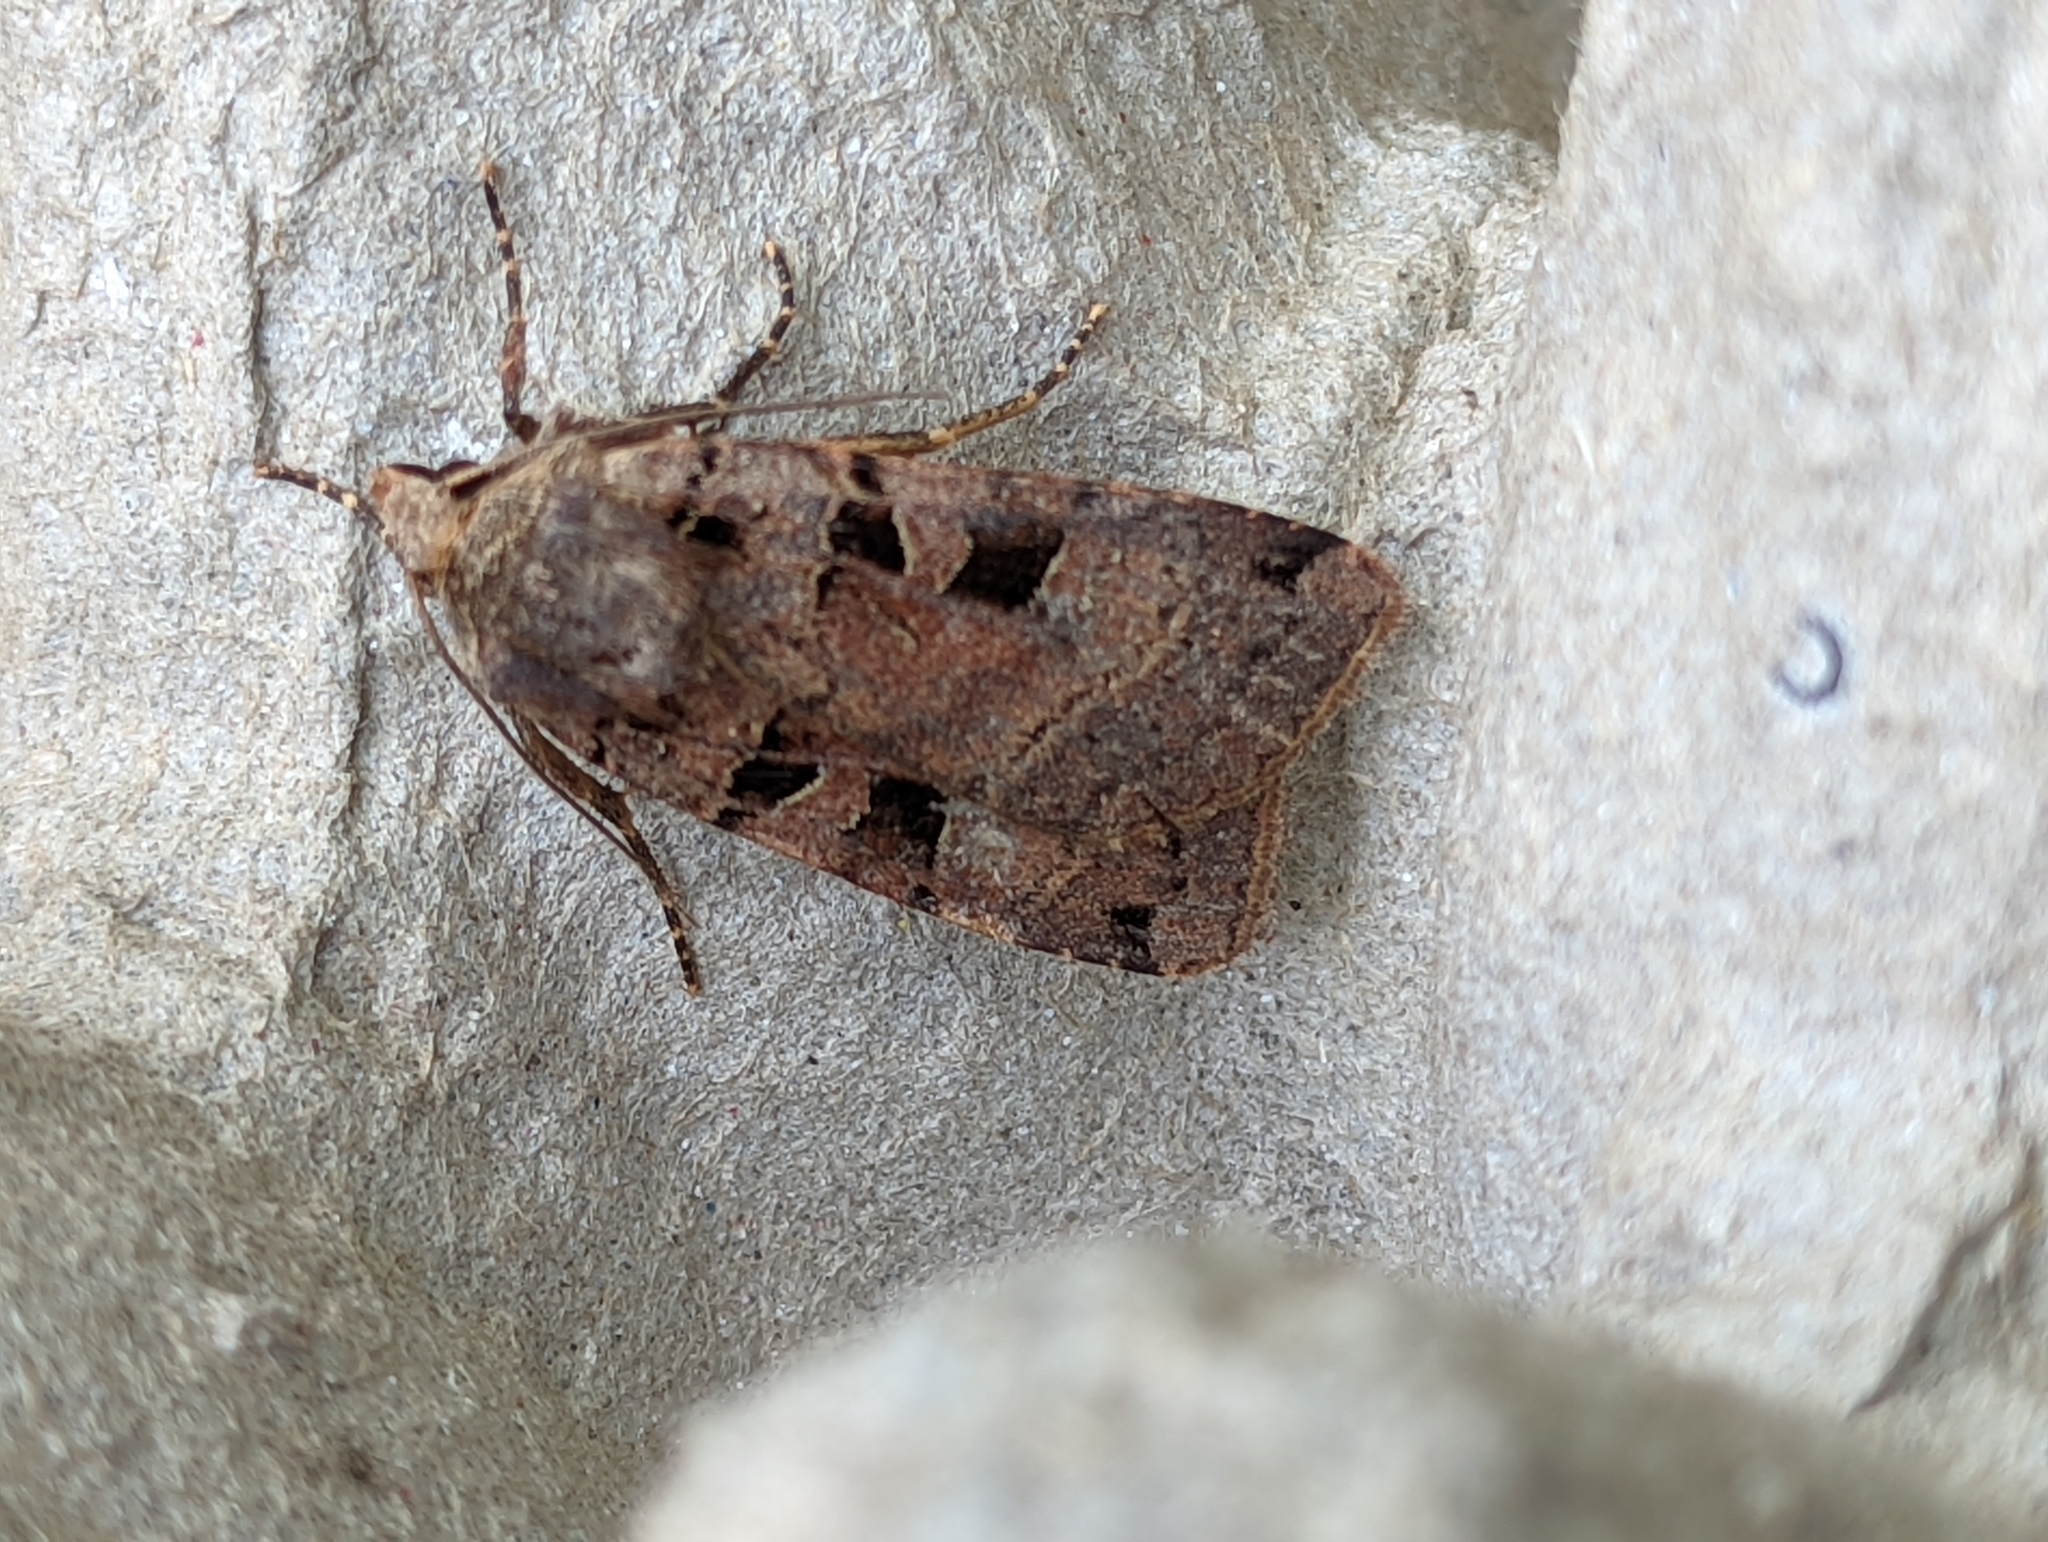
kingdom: Animalia
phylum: Arthropoda
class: Insecta
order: Lepidoptera
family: Noctuidae
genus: Xestia
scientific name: Xestia triangulum
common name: Double square-spot
